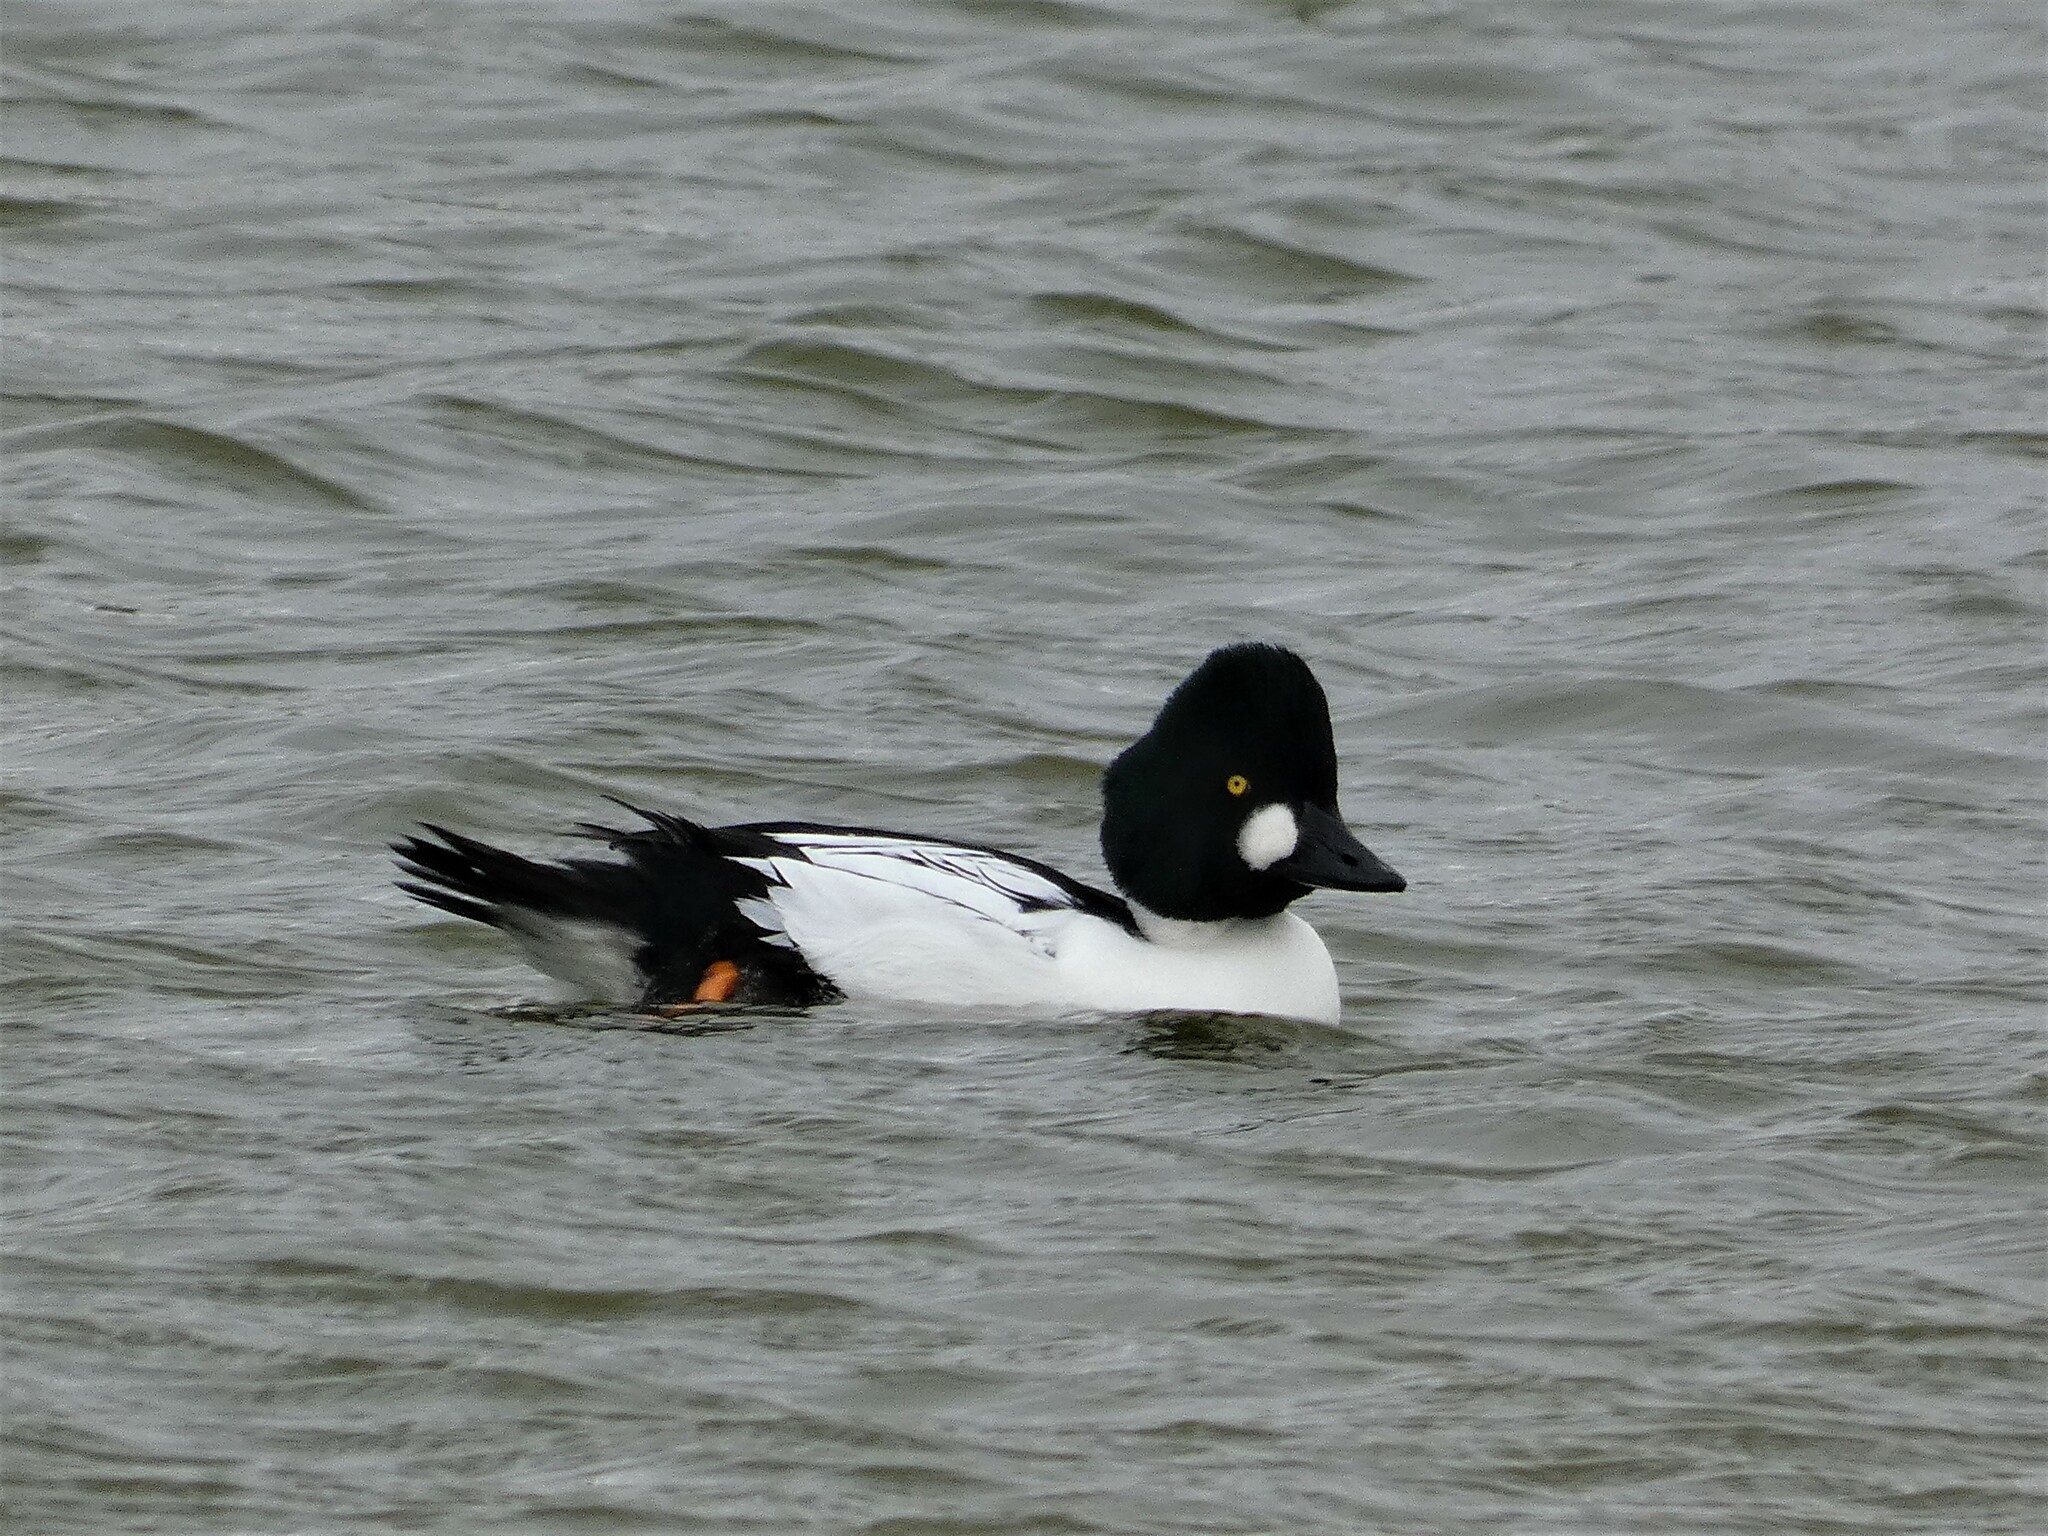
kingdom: Animalia
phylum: Chordata
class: Aves
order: Anseriformes
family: Anatidae
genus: Bucephala
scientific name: Bucephala clangula
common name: Common goldeneye
